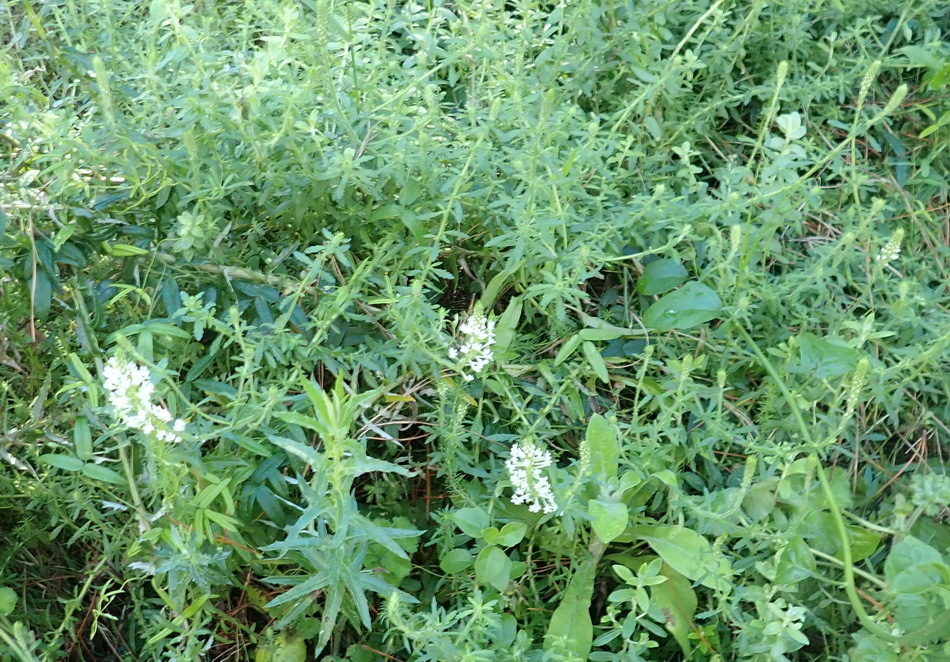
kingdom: Plantae
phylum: Tracheophyta
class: Magnoliopsida
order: Lamiales
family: Scrophulariaceae
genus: Dischisma
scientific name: Dischisma ciliatum
